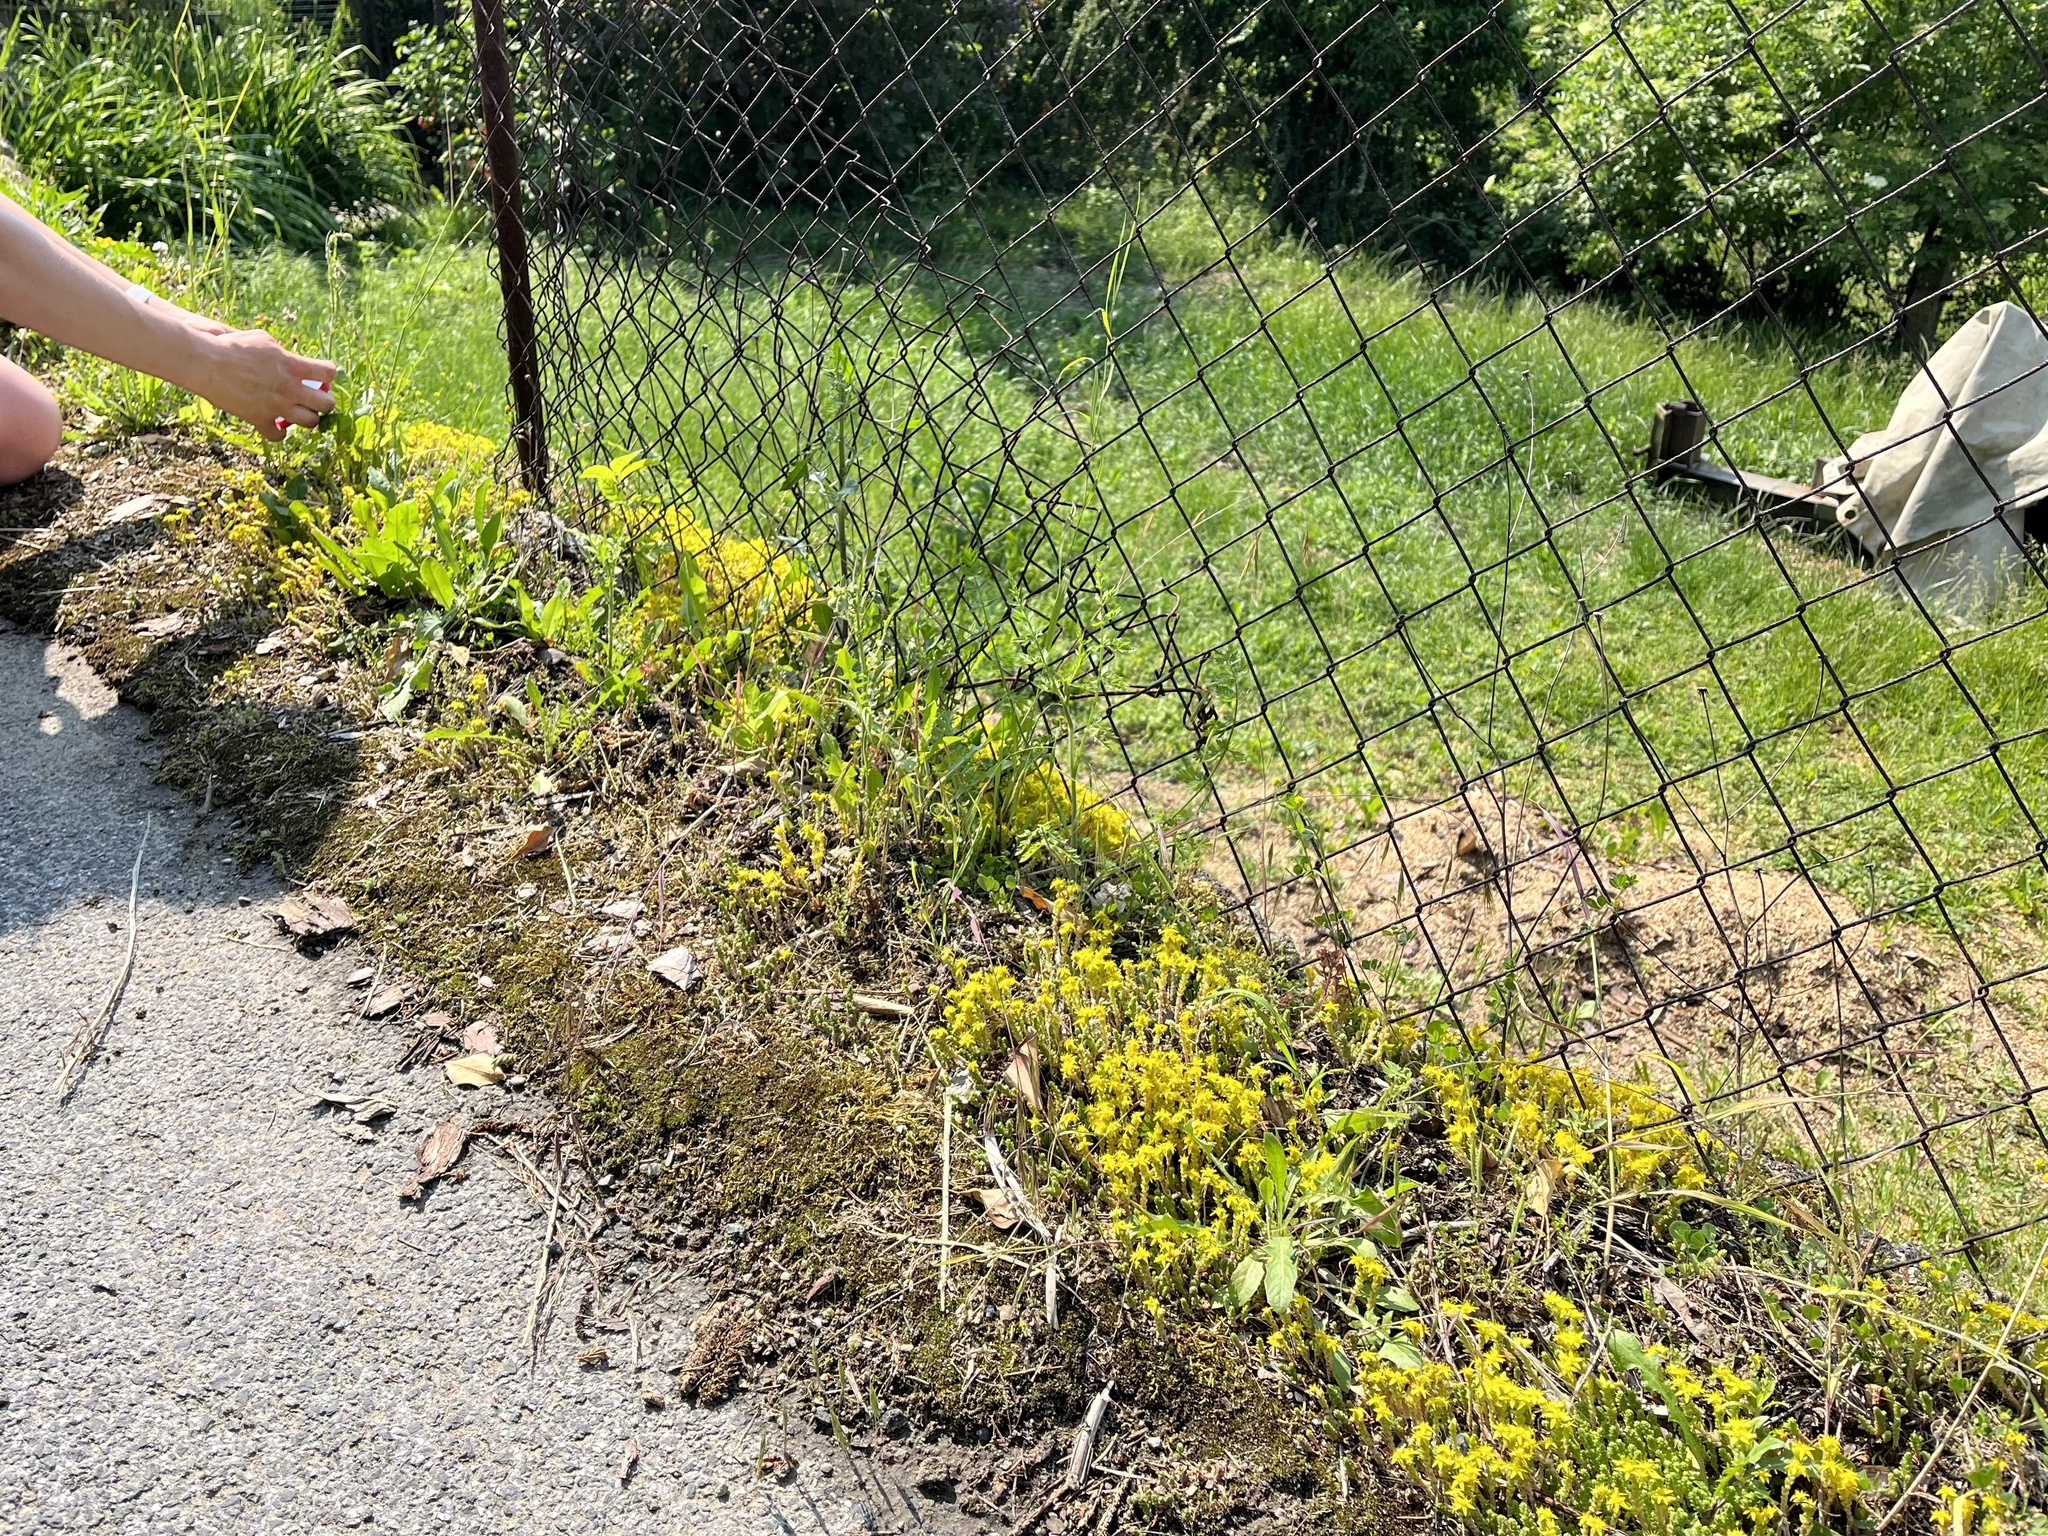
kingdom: Plantae
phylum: Tracheophyta
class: Magnoliopsida
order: Saxifragales
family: Crassulaceae
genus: Sedum
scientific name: Sedum acre
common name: Biting stonecrop
